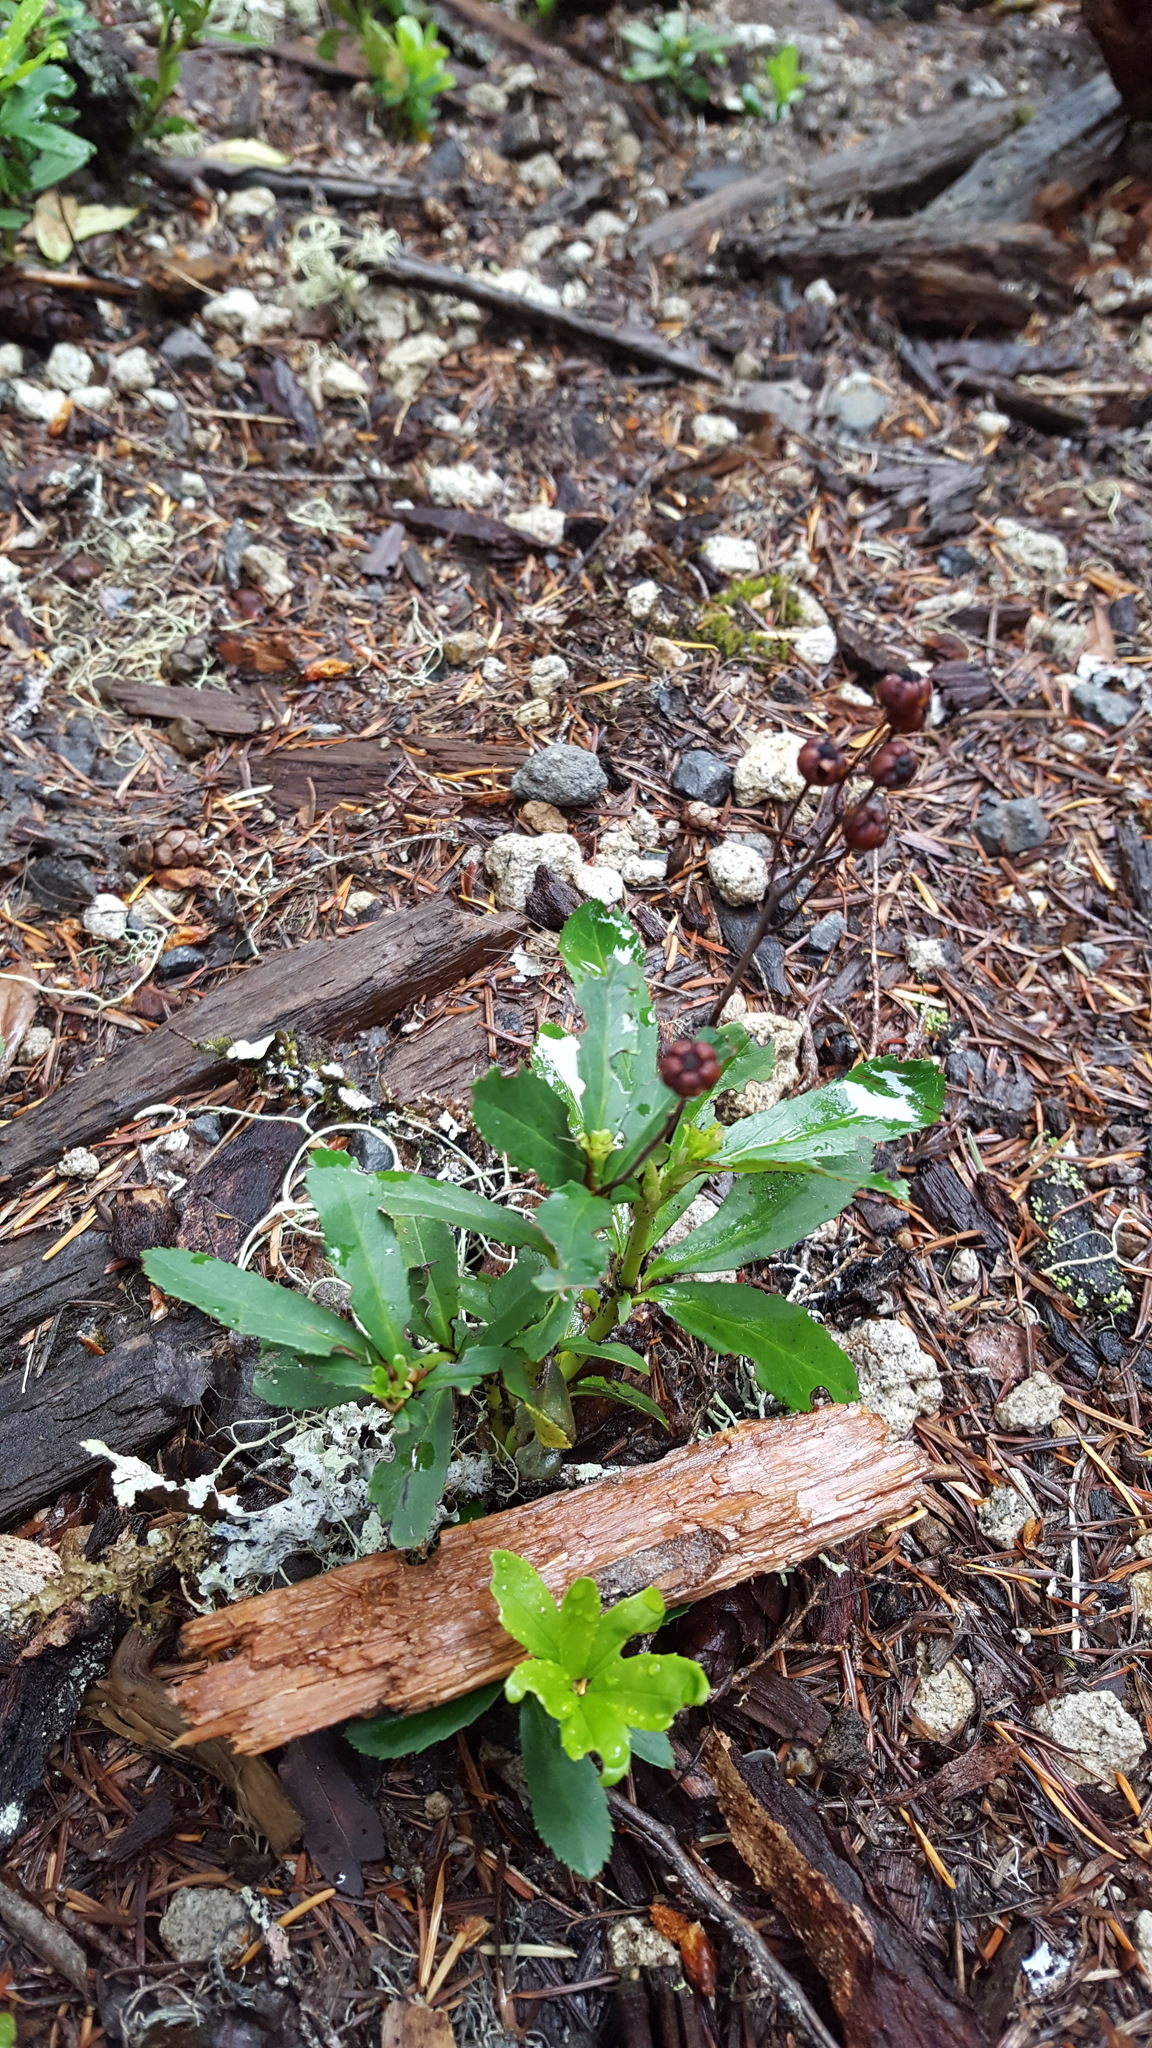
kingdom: Plantae
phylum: Tracheophyta
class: Magnoliopsida
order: Ericales
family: Ericaceae
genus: Chimaphila
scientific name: Chimaphila umbellata
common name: Pipsissewa
